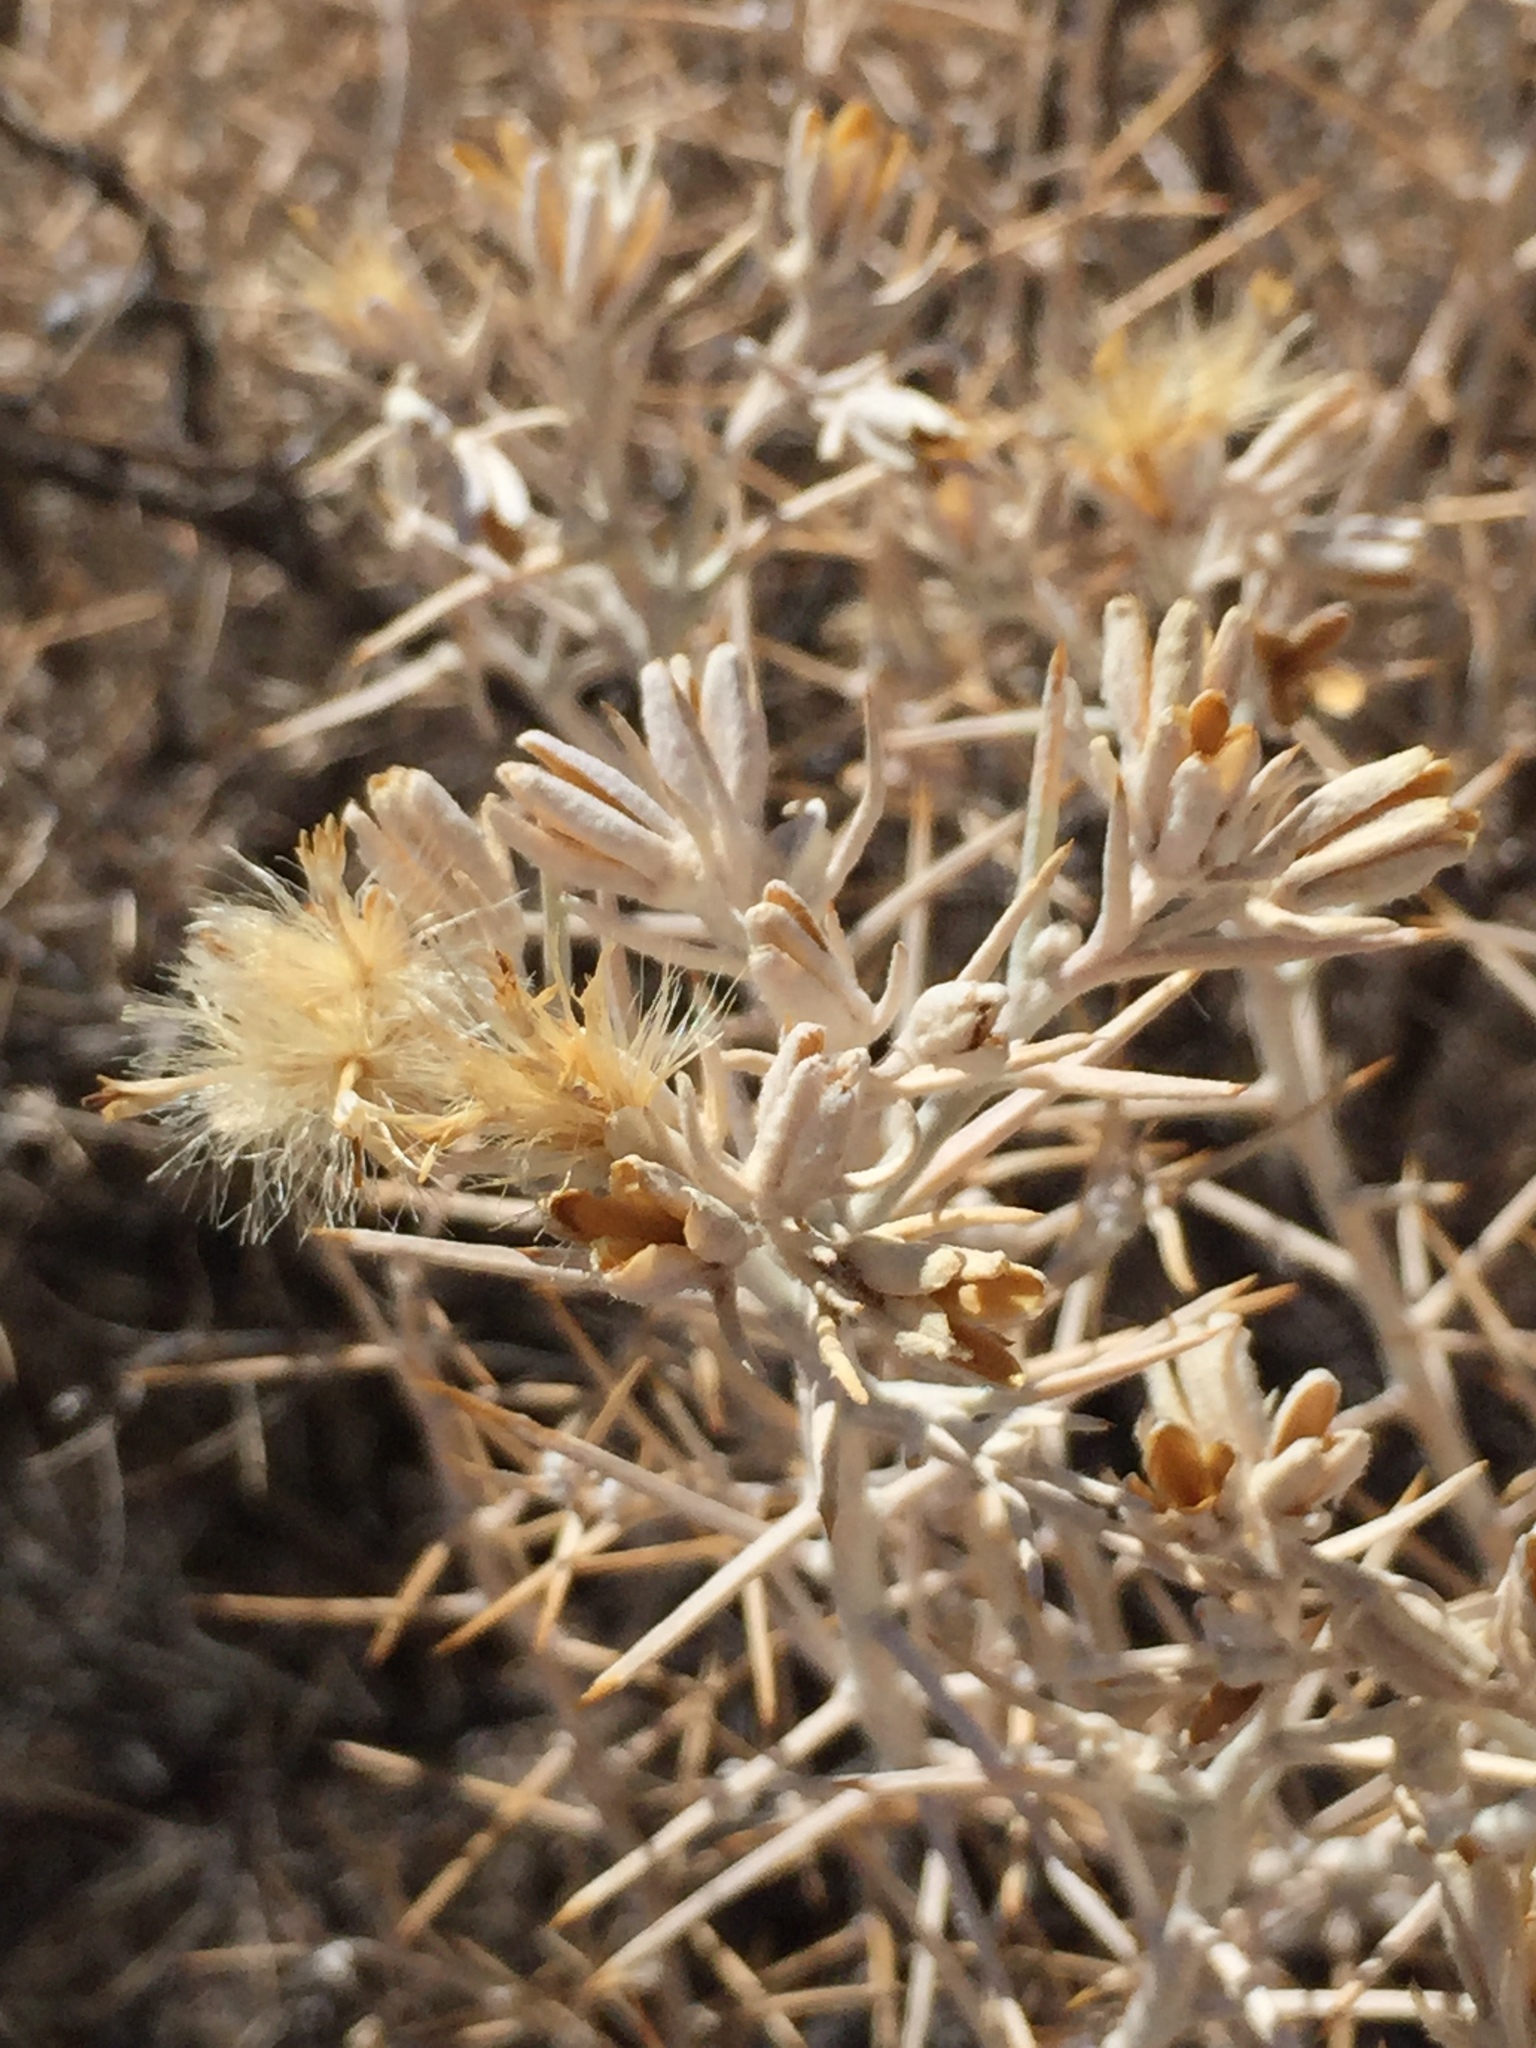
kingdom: Plantae
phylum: Tracheophyta
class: Magnoliopsida
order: Asterales
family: Asteraceae
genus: Tetradymia
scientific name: Tetradymia stenolepis
